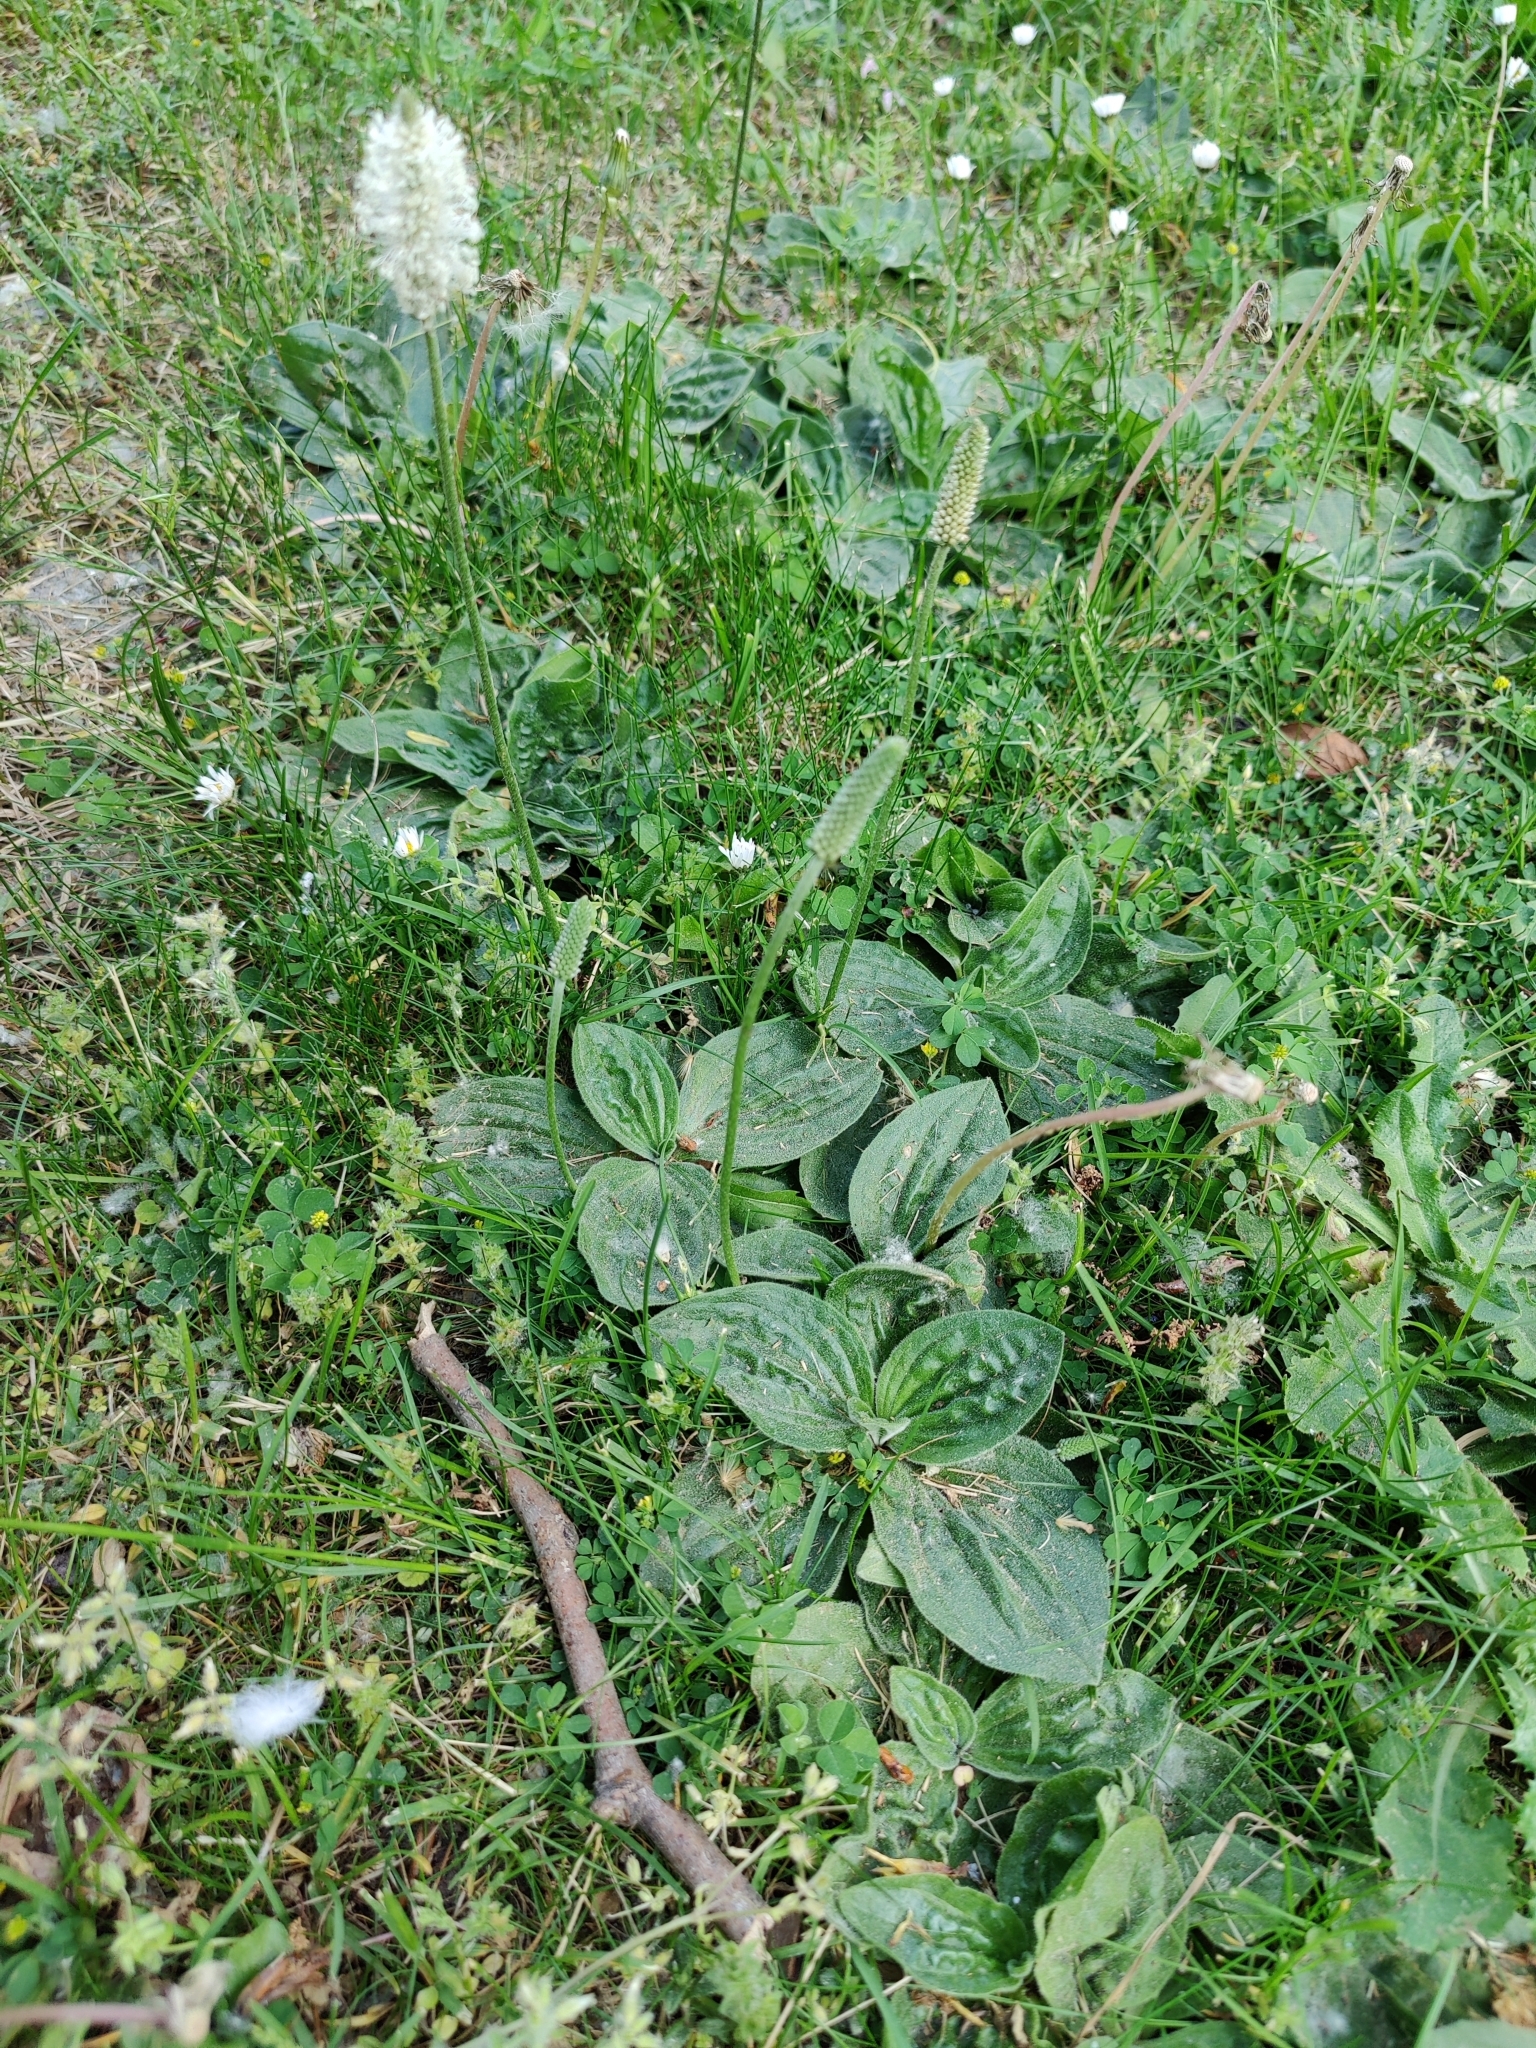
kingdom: Plantae
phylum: Tracheophyta
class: Magnoliopsida
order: Lamiales
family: Plantaginaceae
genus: Plantago
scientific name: Plantago media
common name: Hoary plantain
